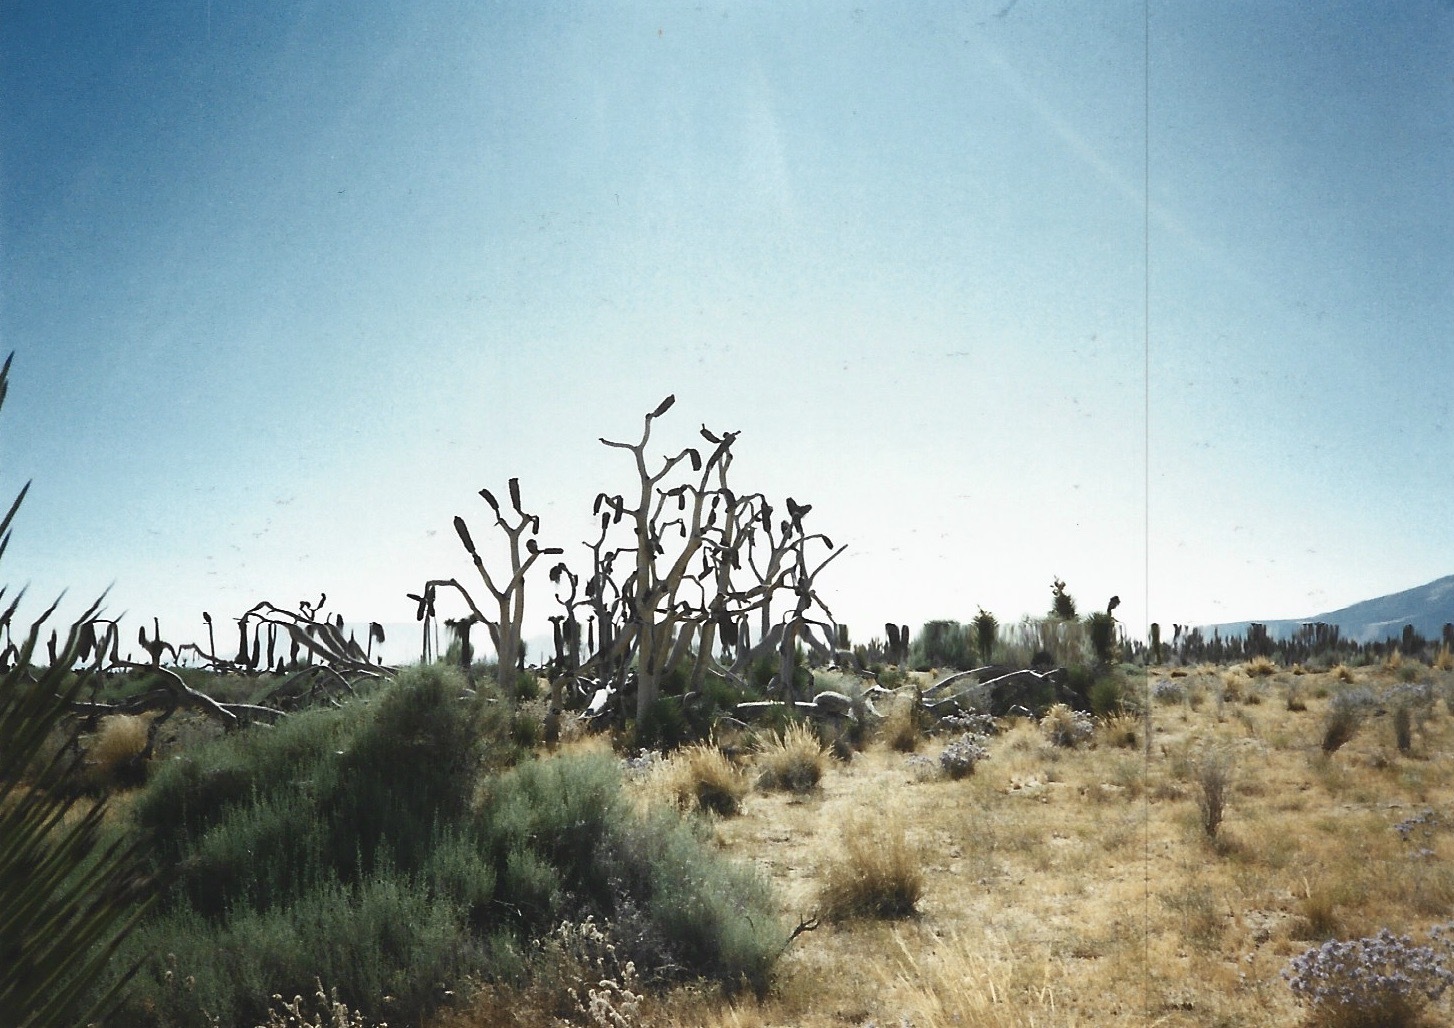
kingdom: Plantae
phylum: Tracheophyta
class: Liliopsida
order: Asparagales
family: Asparagaceae
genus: Yucca
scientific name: Yucca brevifolia
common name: Joshua tree
